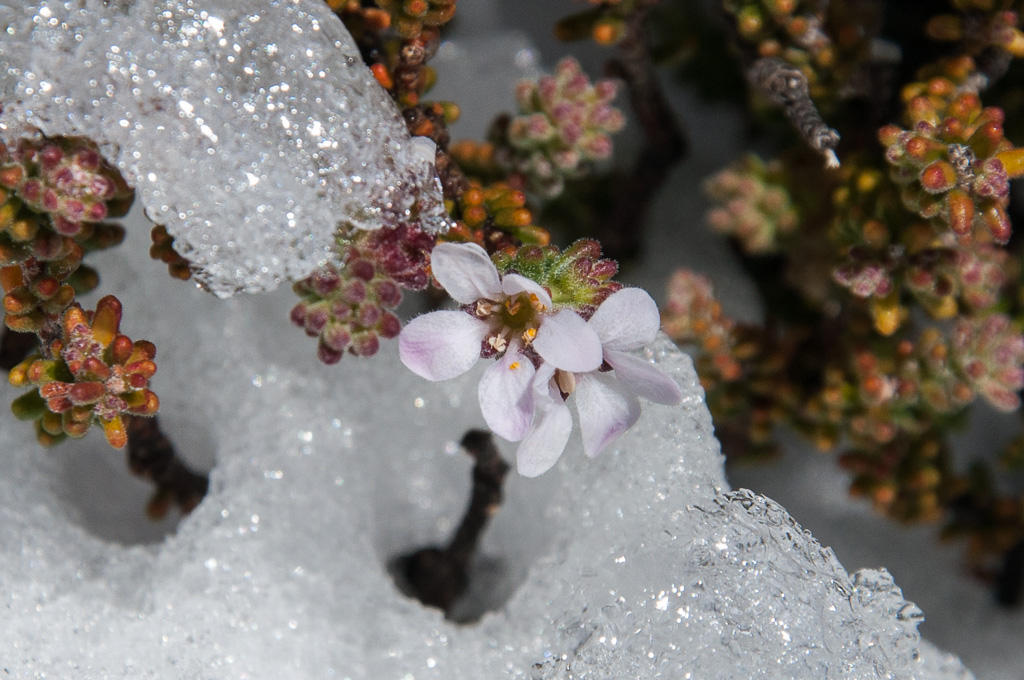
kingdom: Plantae
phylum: Tracheophyta
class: Magnoliopsida
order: Sapindales
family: Rutaceae
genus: Acmadenia
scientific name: Acmadenia teretifolia
